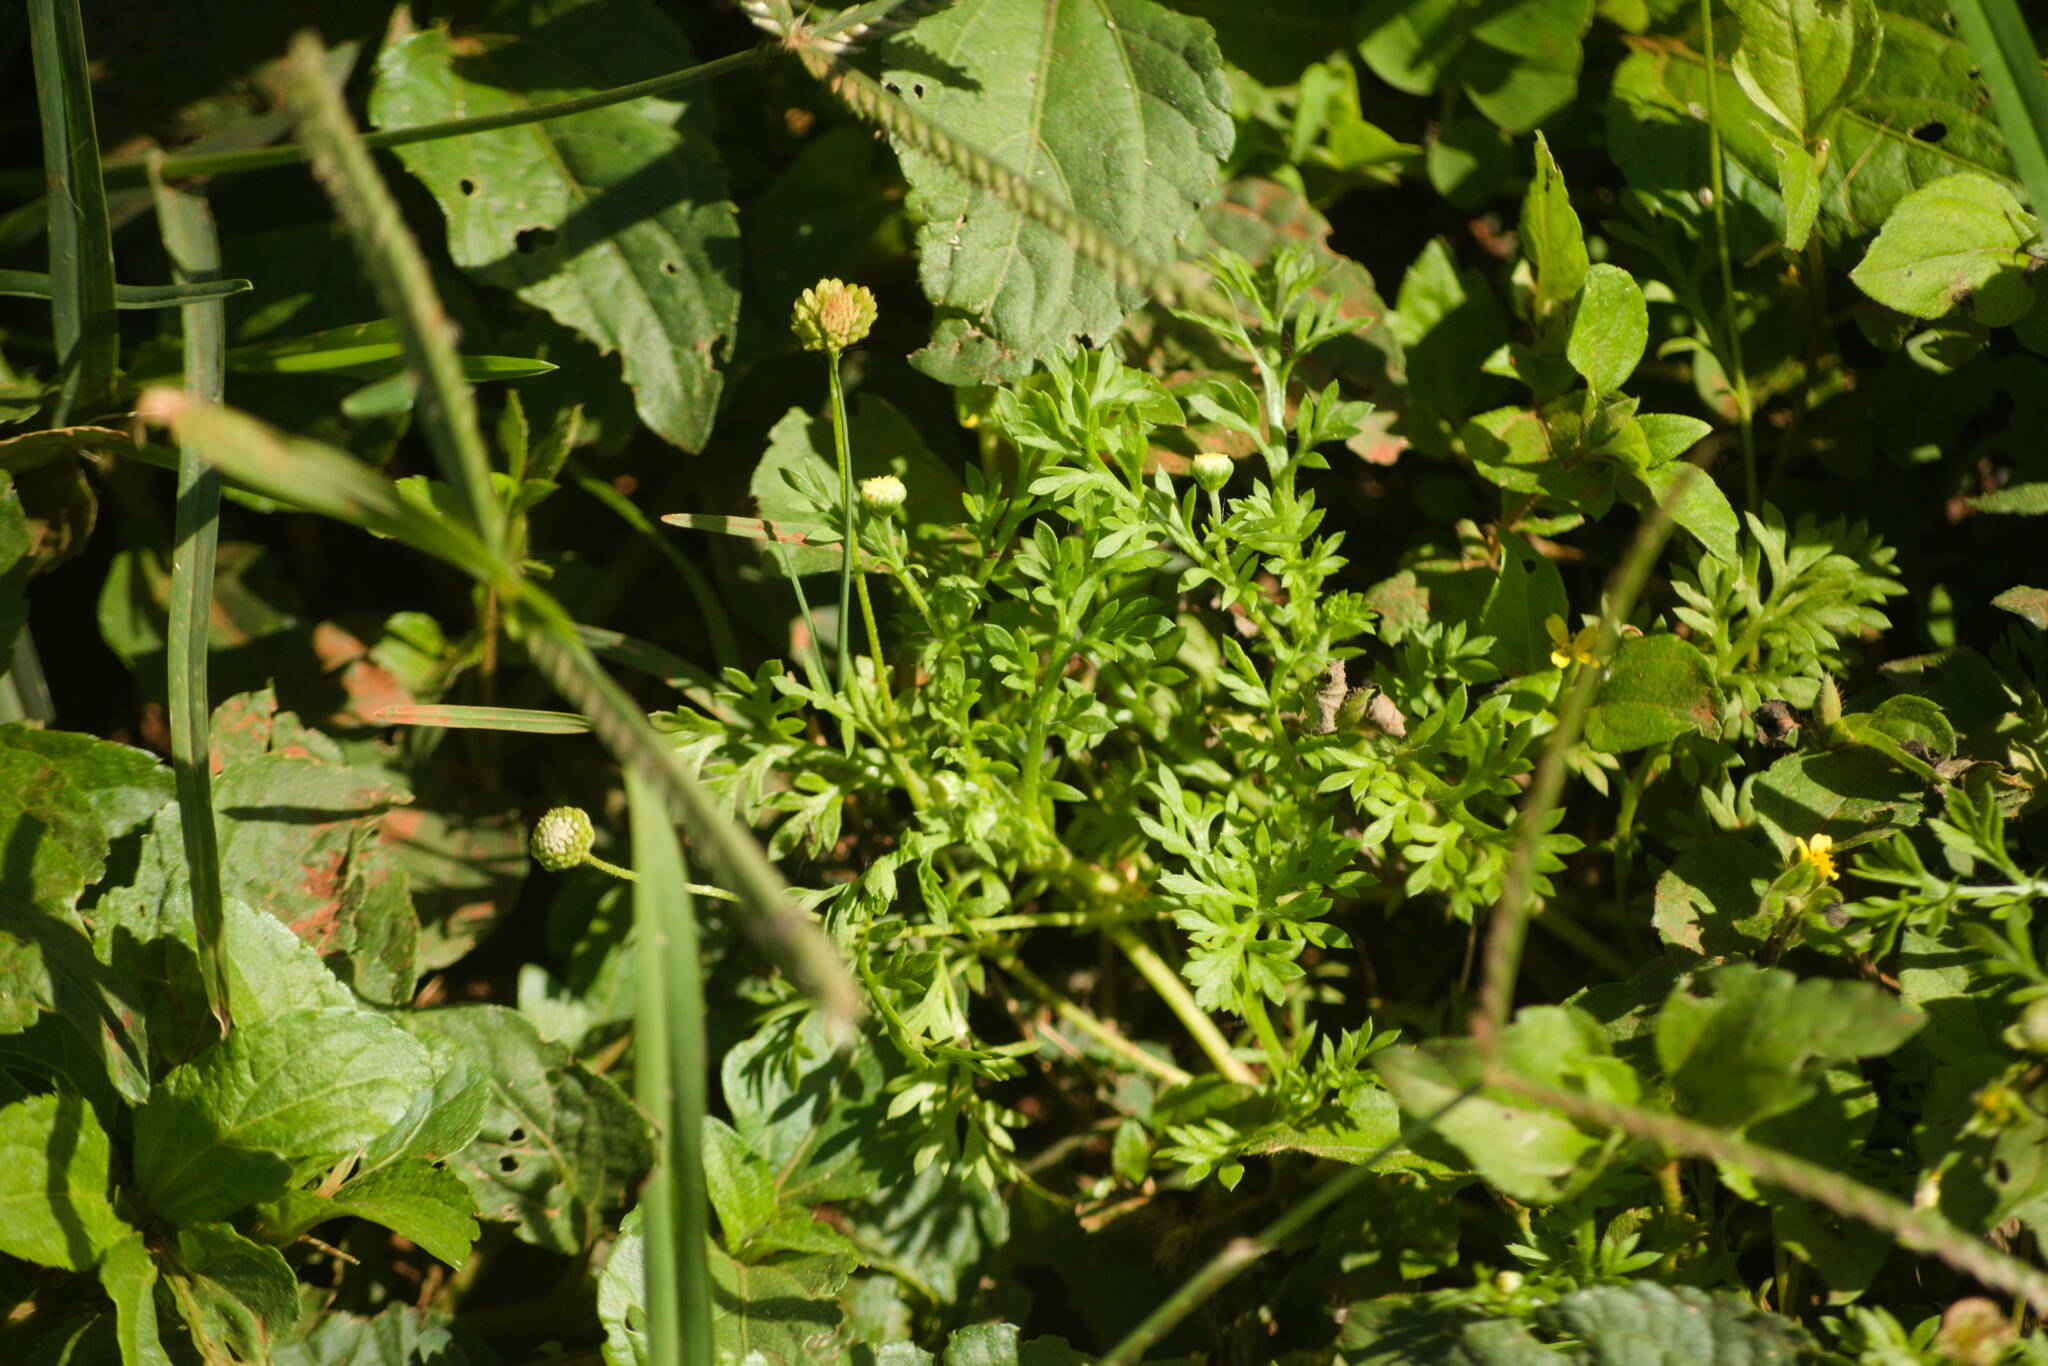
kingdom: Plantae
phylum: Tracheophyta
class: Magnoliopsida
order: Asterales
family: Asteraceae
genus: Cotula
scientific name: Cotula australis
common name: Australian waterbuttons
